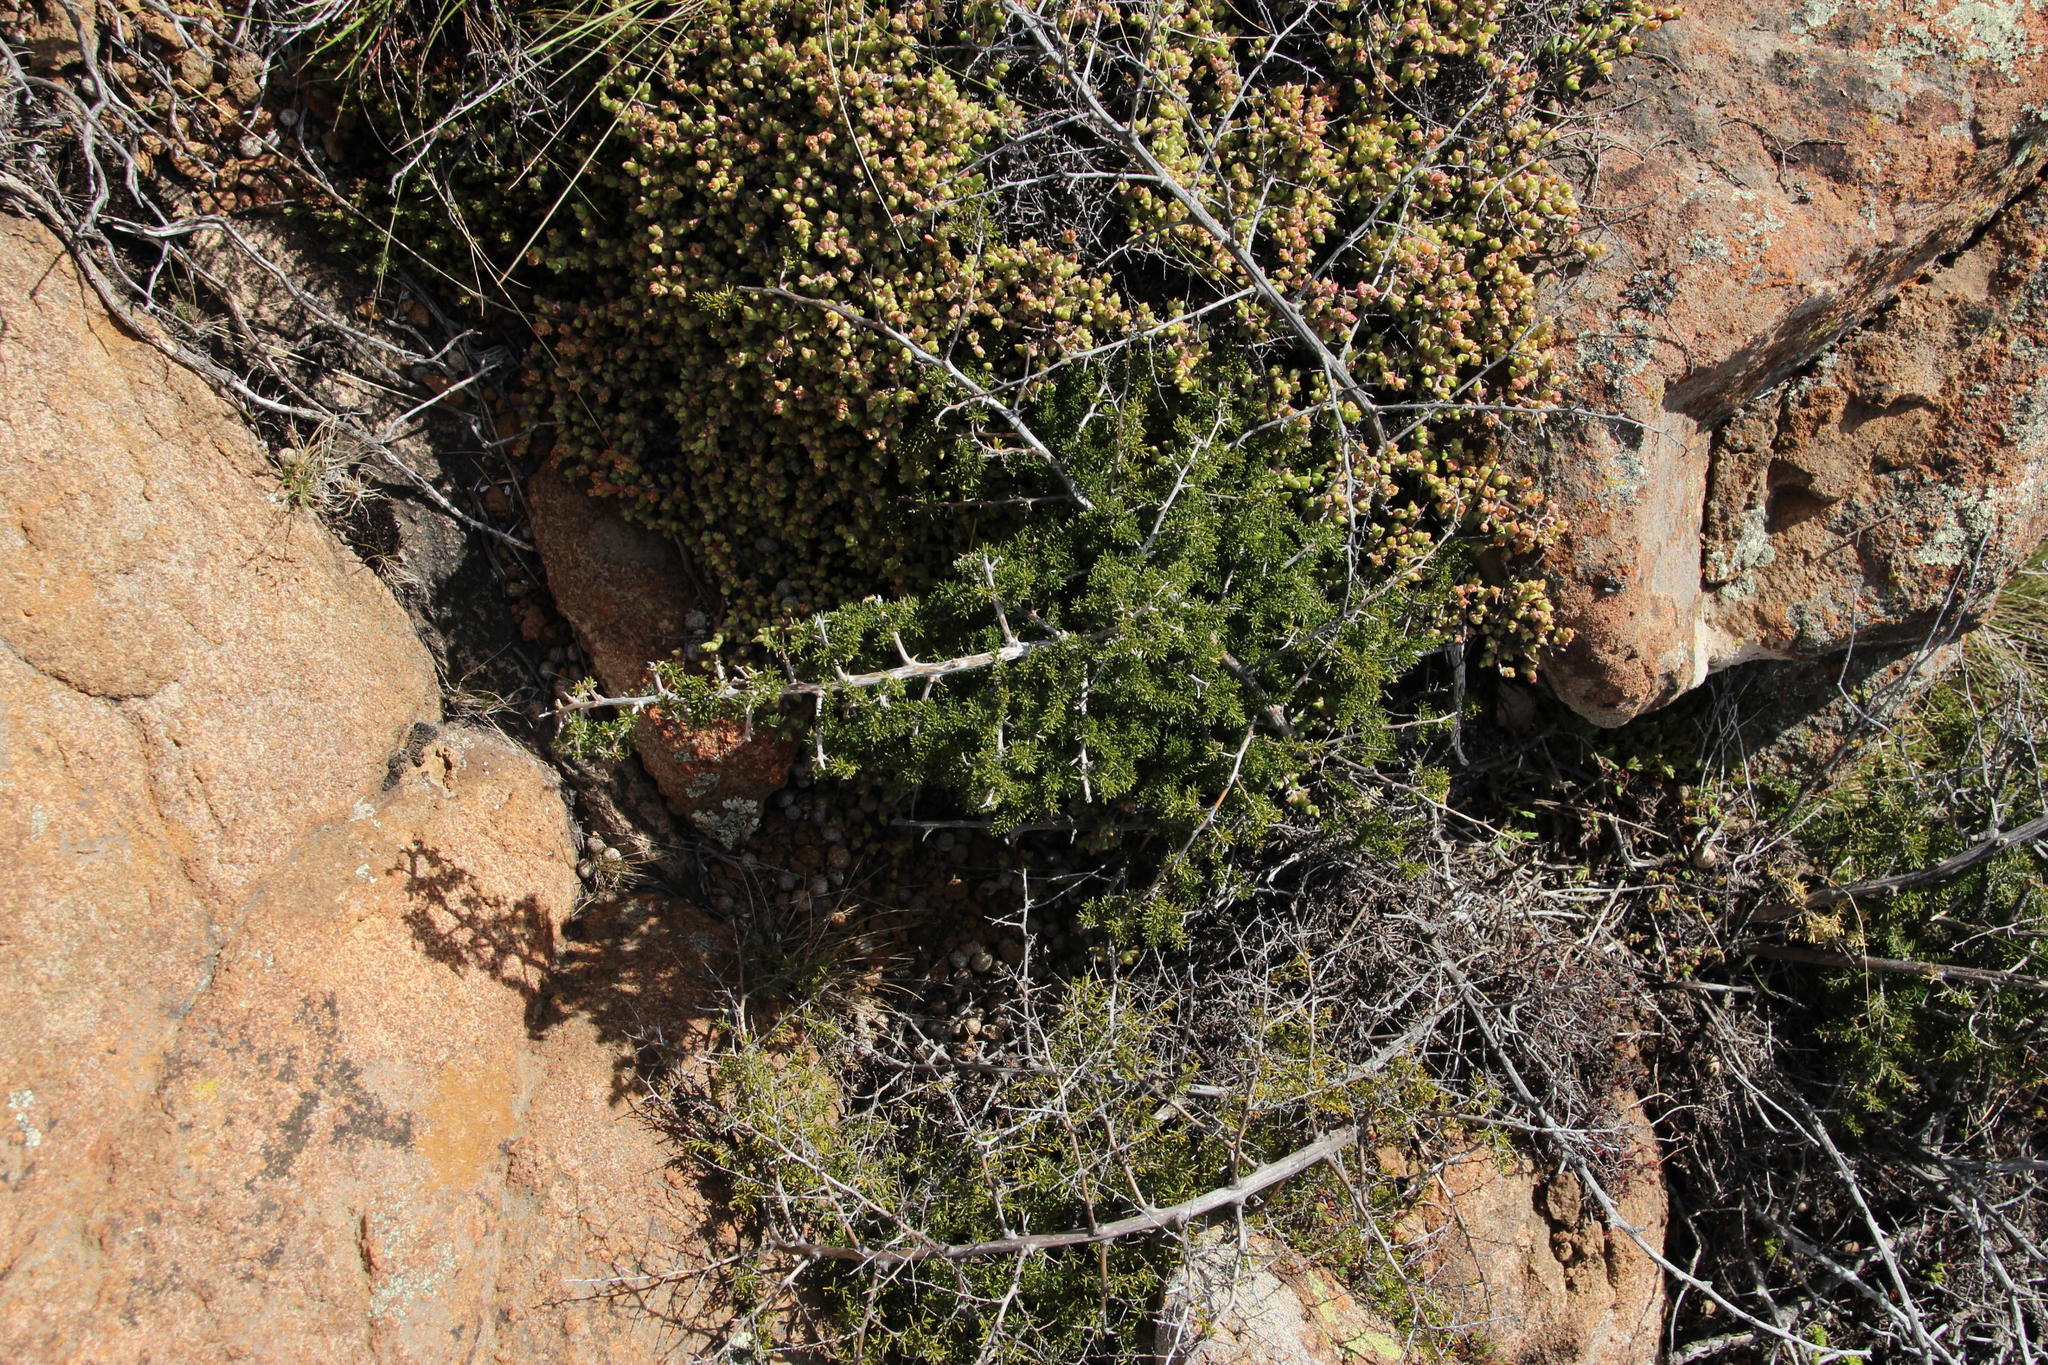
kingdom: Plantae
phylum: Tracheophyta
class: Liliopsida
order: Asparagales
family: Asparagaceae
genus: Asparagus
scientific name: Asparagus microraphis
